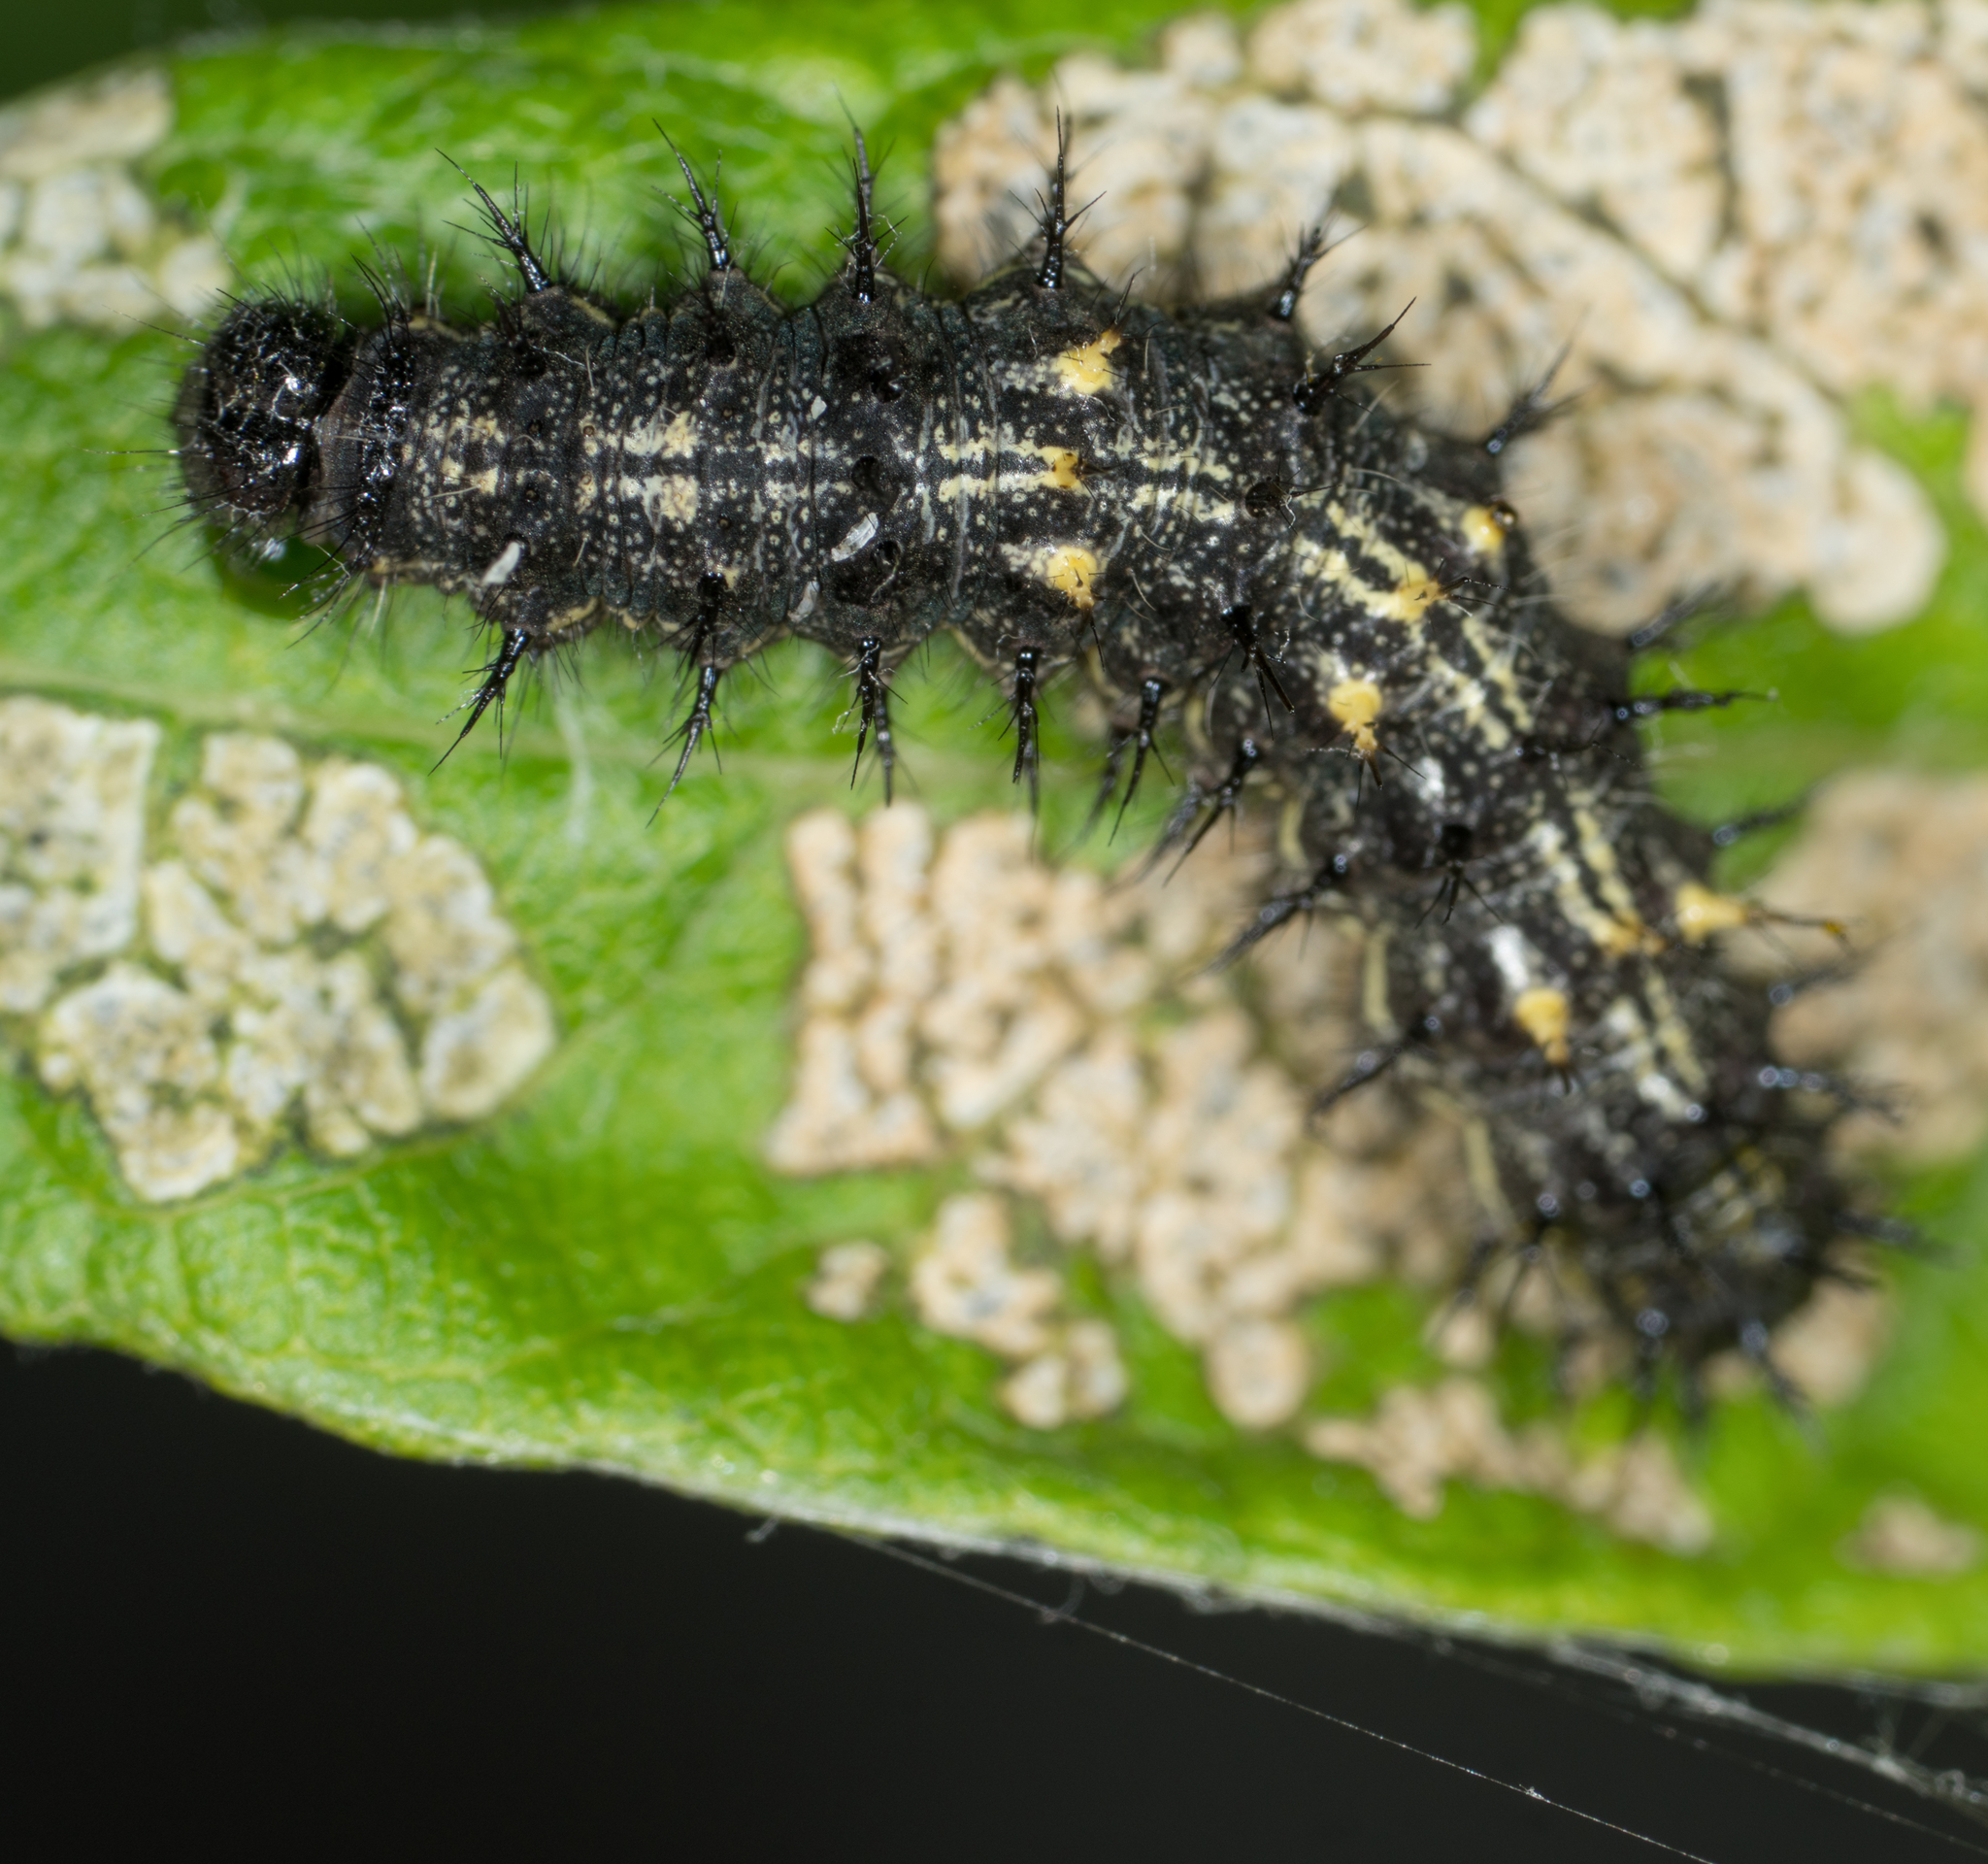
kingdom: Animalia
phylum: Arthropoda
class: Insecta
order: Lepidoptera
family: Nymphalidae
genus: Vanessa
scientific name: Vanessa cardui
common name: Painted lady
